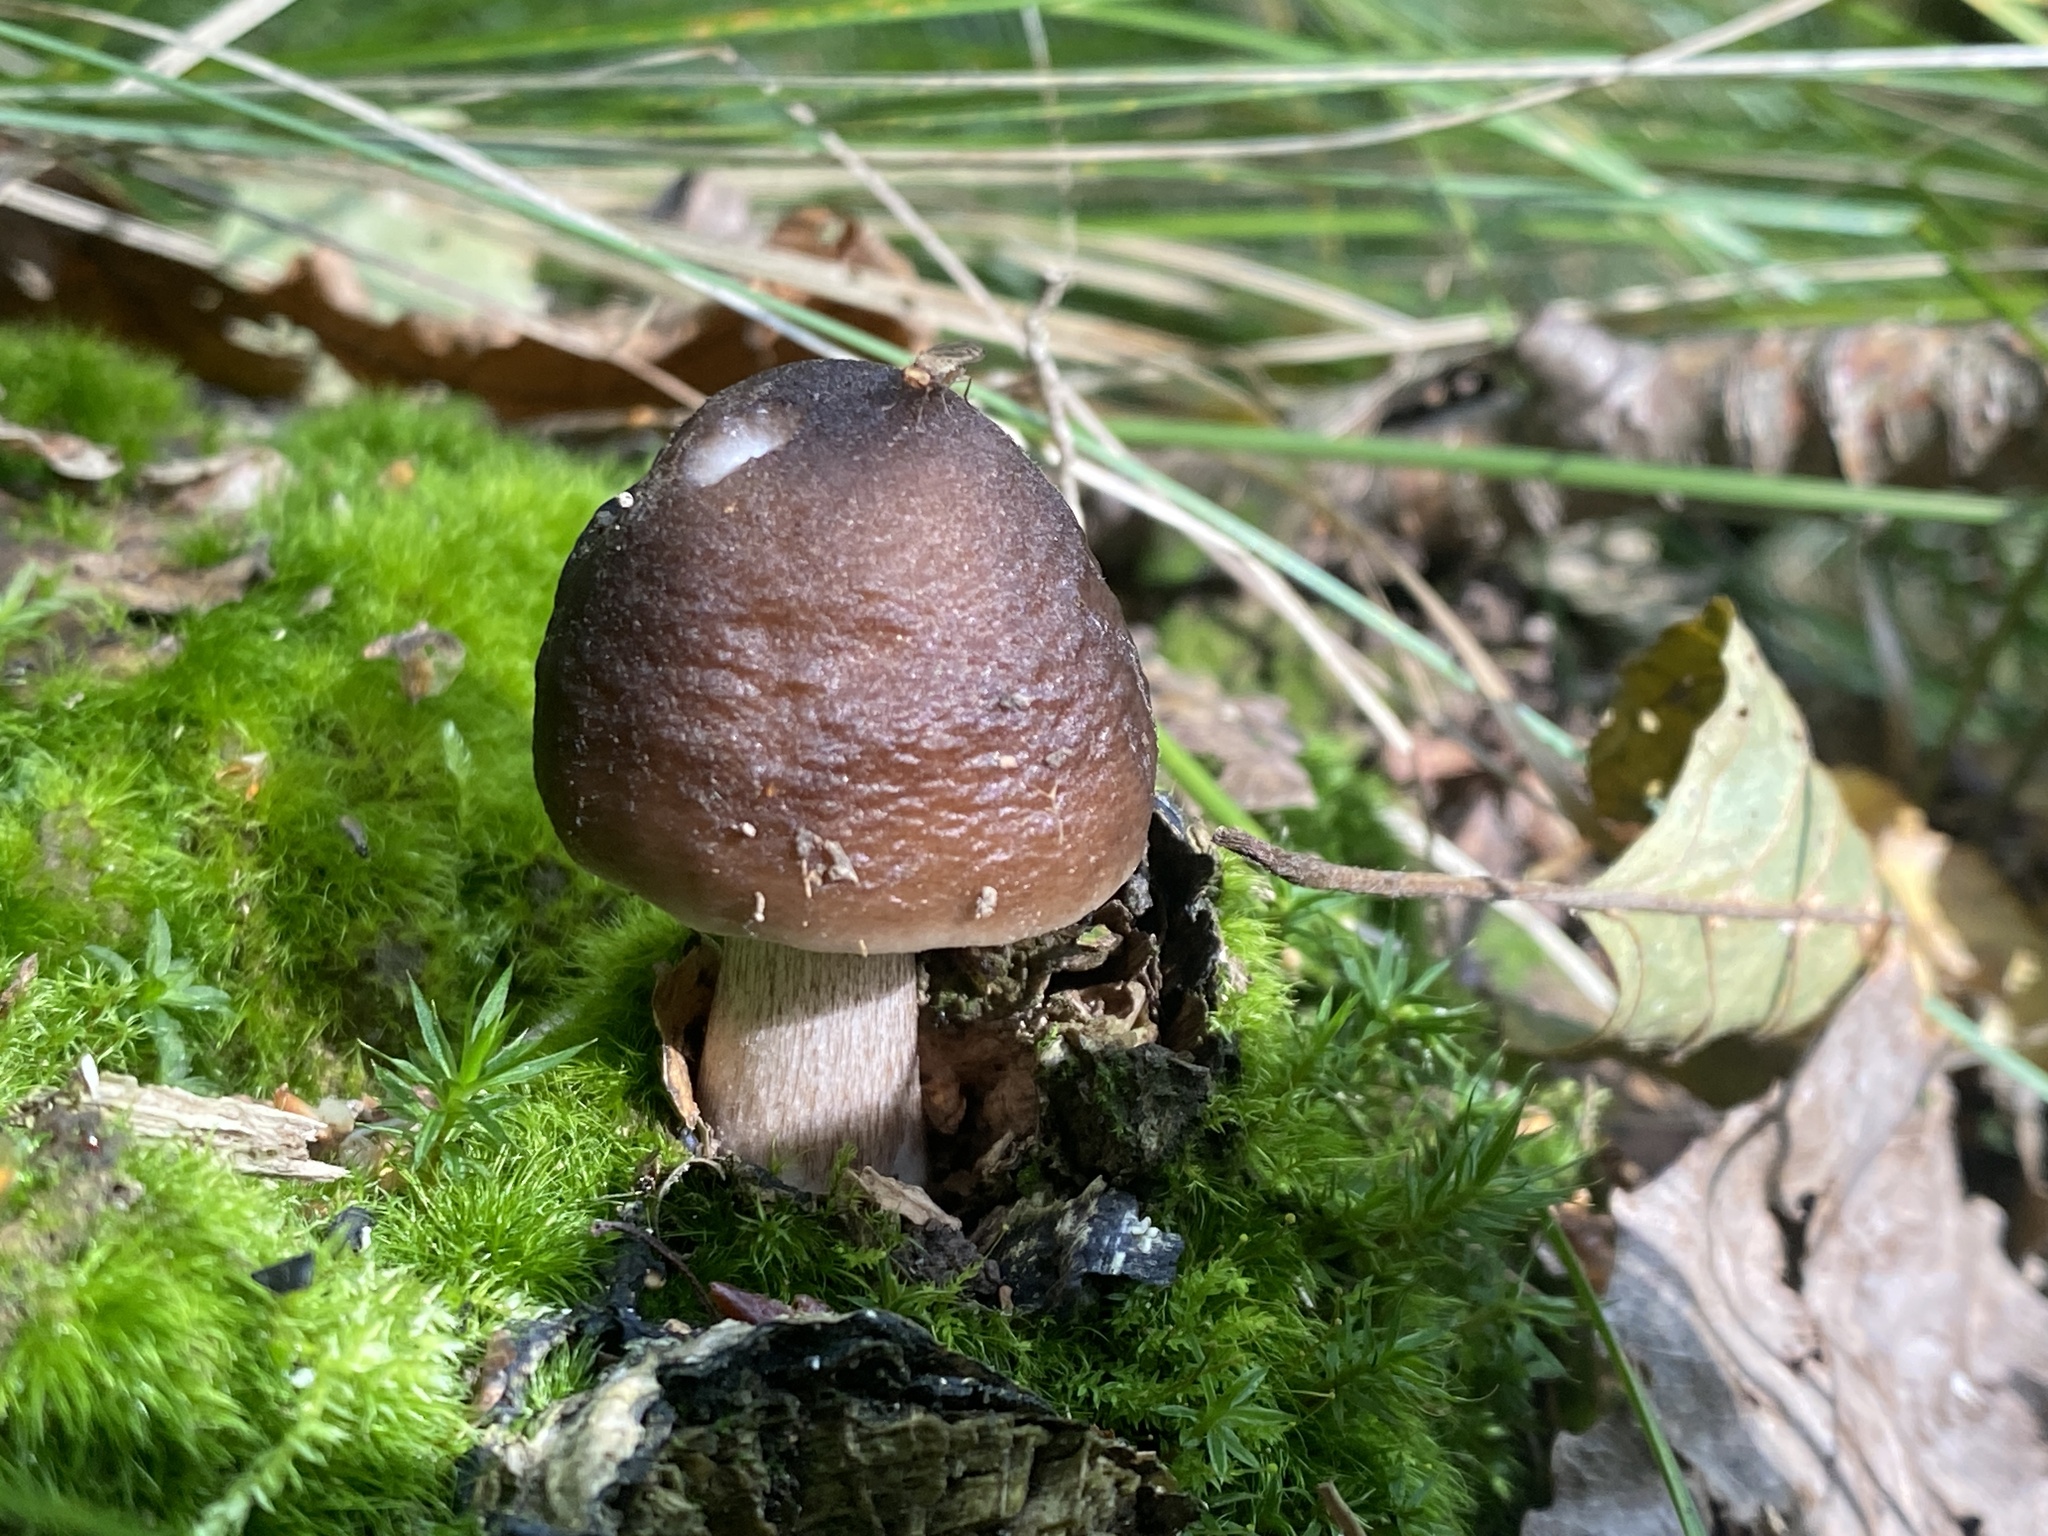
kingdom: Fungi
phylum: Basidiomycota
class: Agaricomycetes
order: Agaricales
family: Pluteaceae
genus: Pluteus
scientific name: Pluteus cervinus
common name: Deer shield
